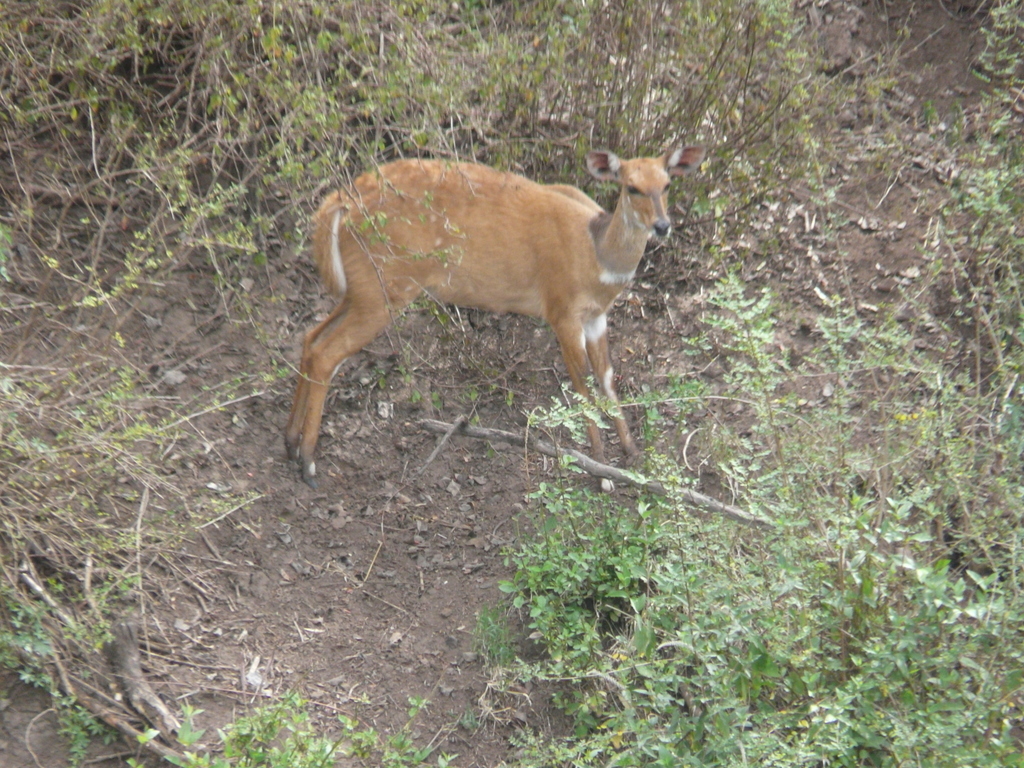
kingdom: Animalia
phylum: Chordata
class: Mammalia
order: Artiodactyla
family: Bovidae
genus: Tragelaphus
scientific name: Tragelaphus scriptus
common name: Bushbuck
